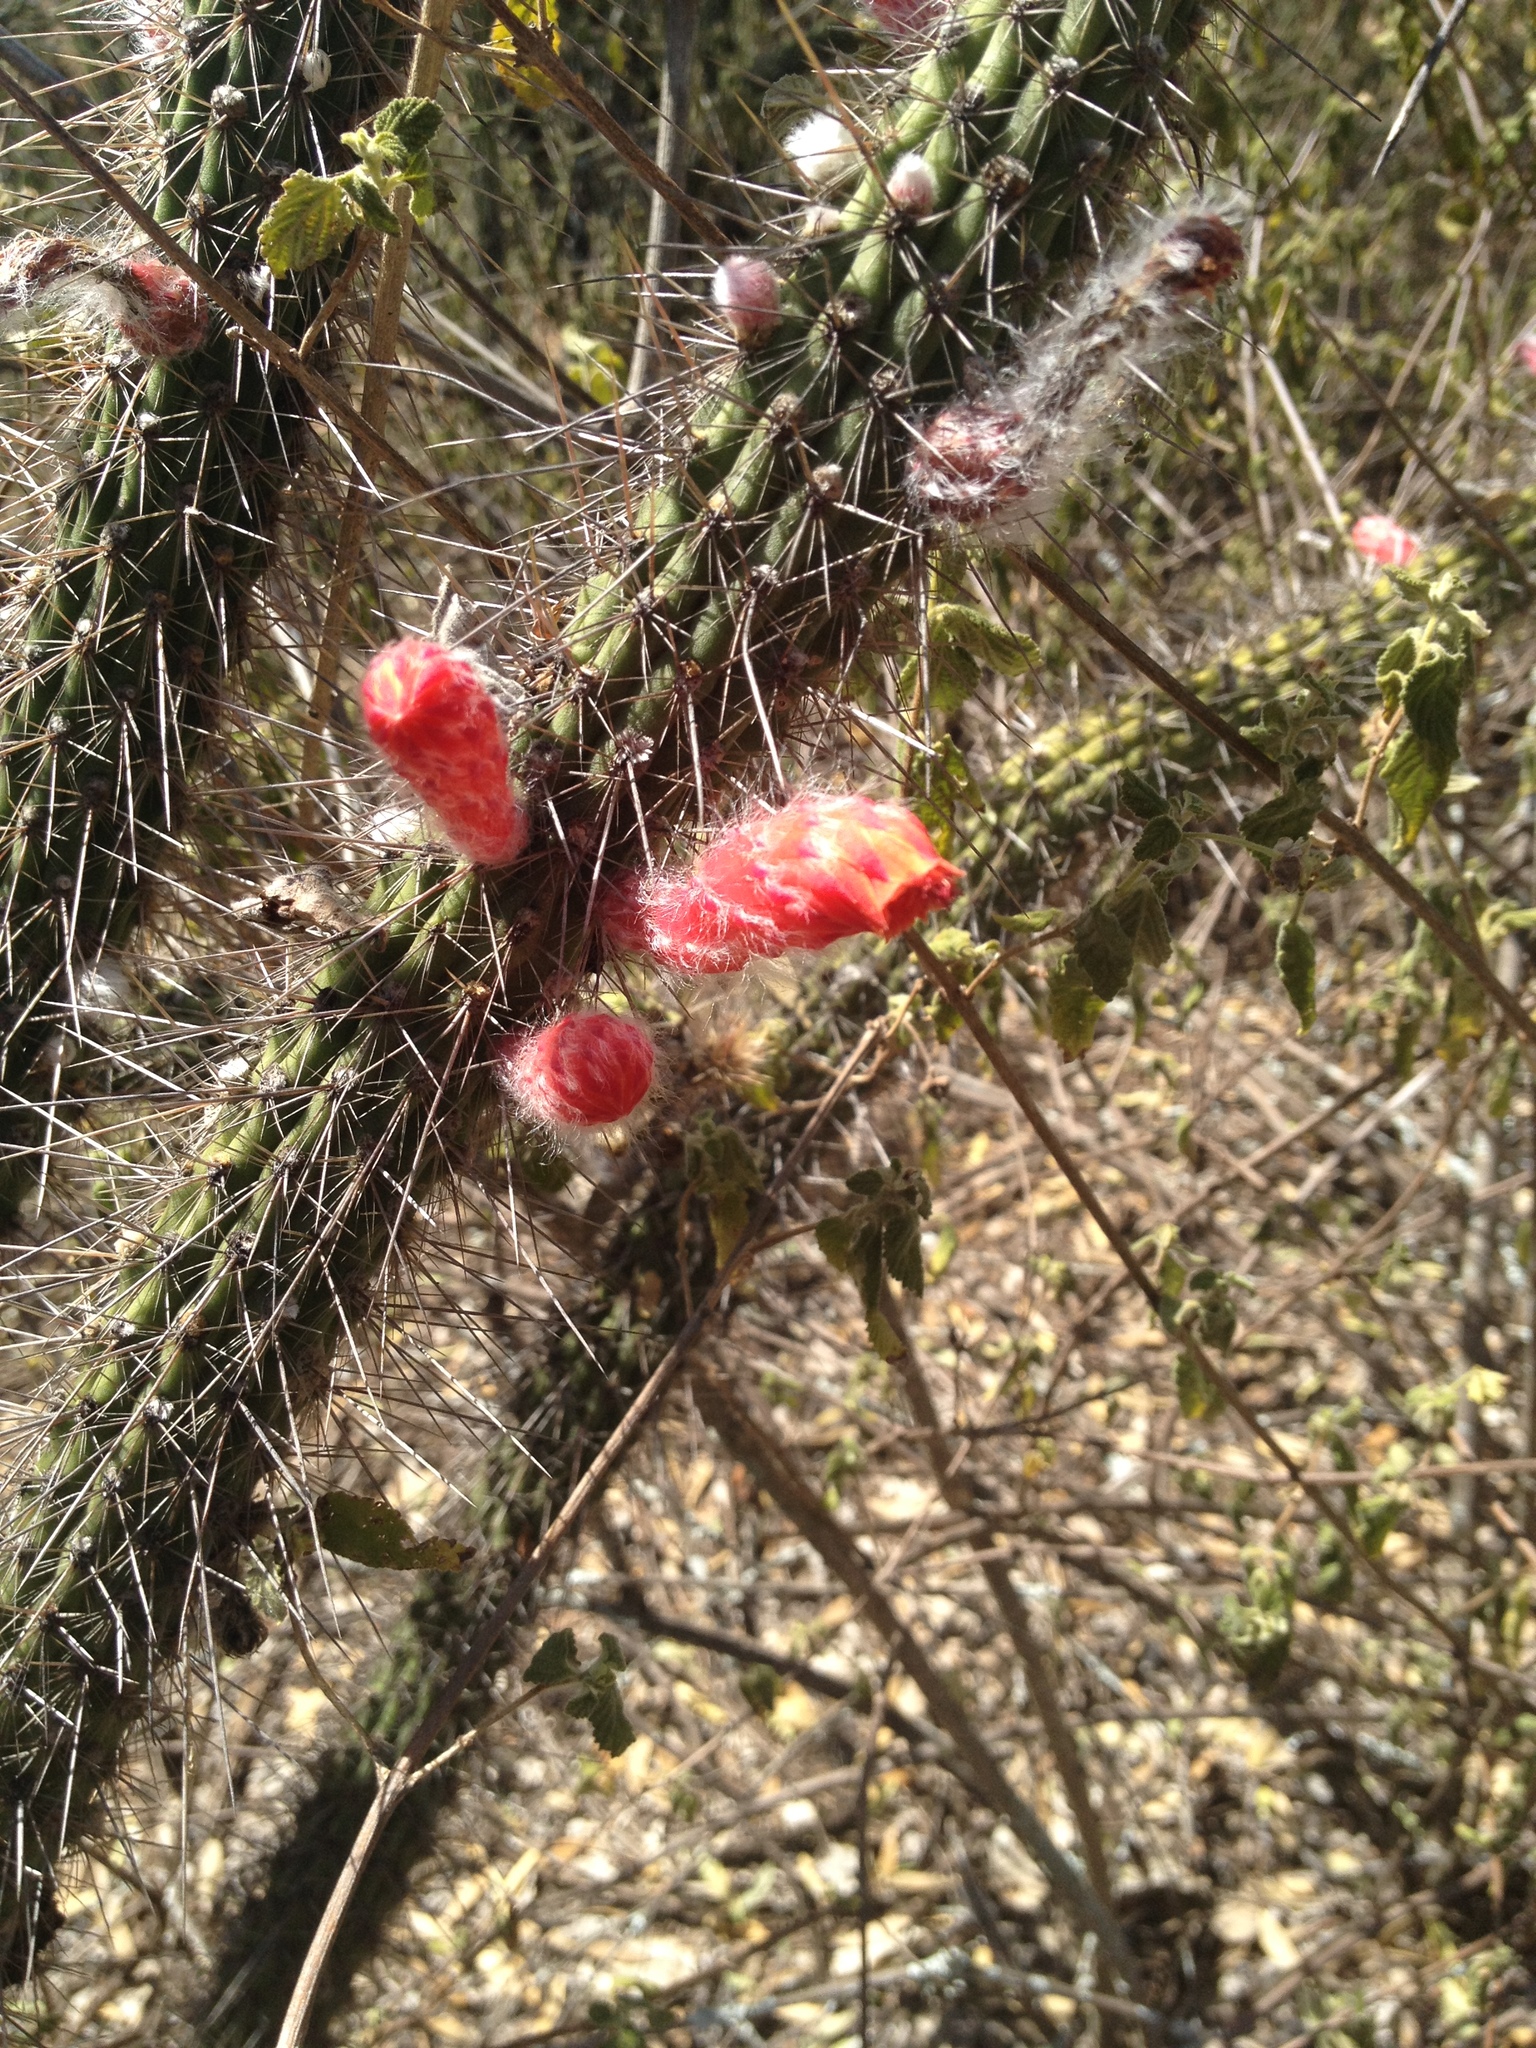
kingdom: Plantae
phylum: Tracheophyta
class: Magnoliopsida
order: Caryophyllales
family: Cactaceae
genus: Cleistocactus
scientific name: Cleistocactus baumannii
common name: Scarlet-bugler
